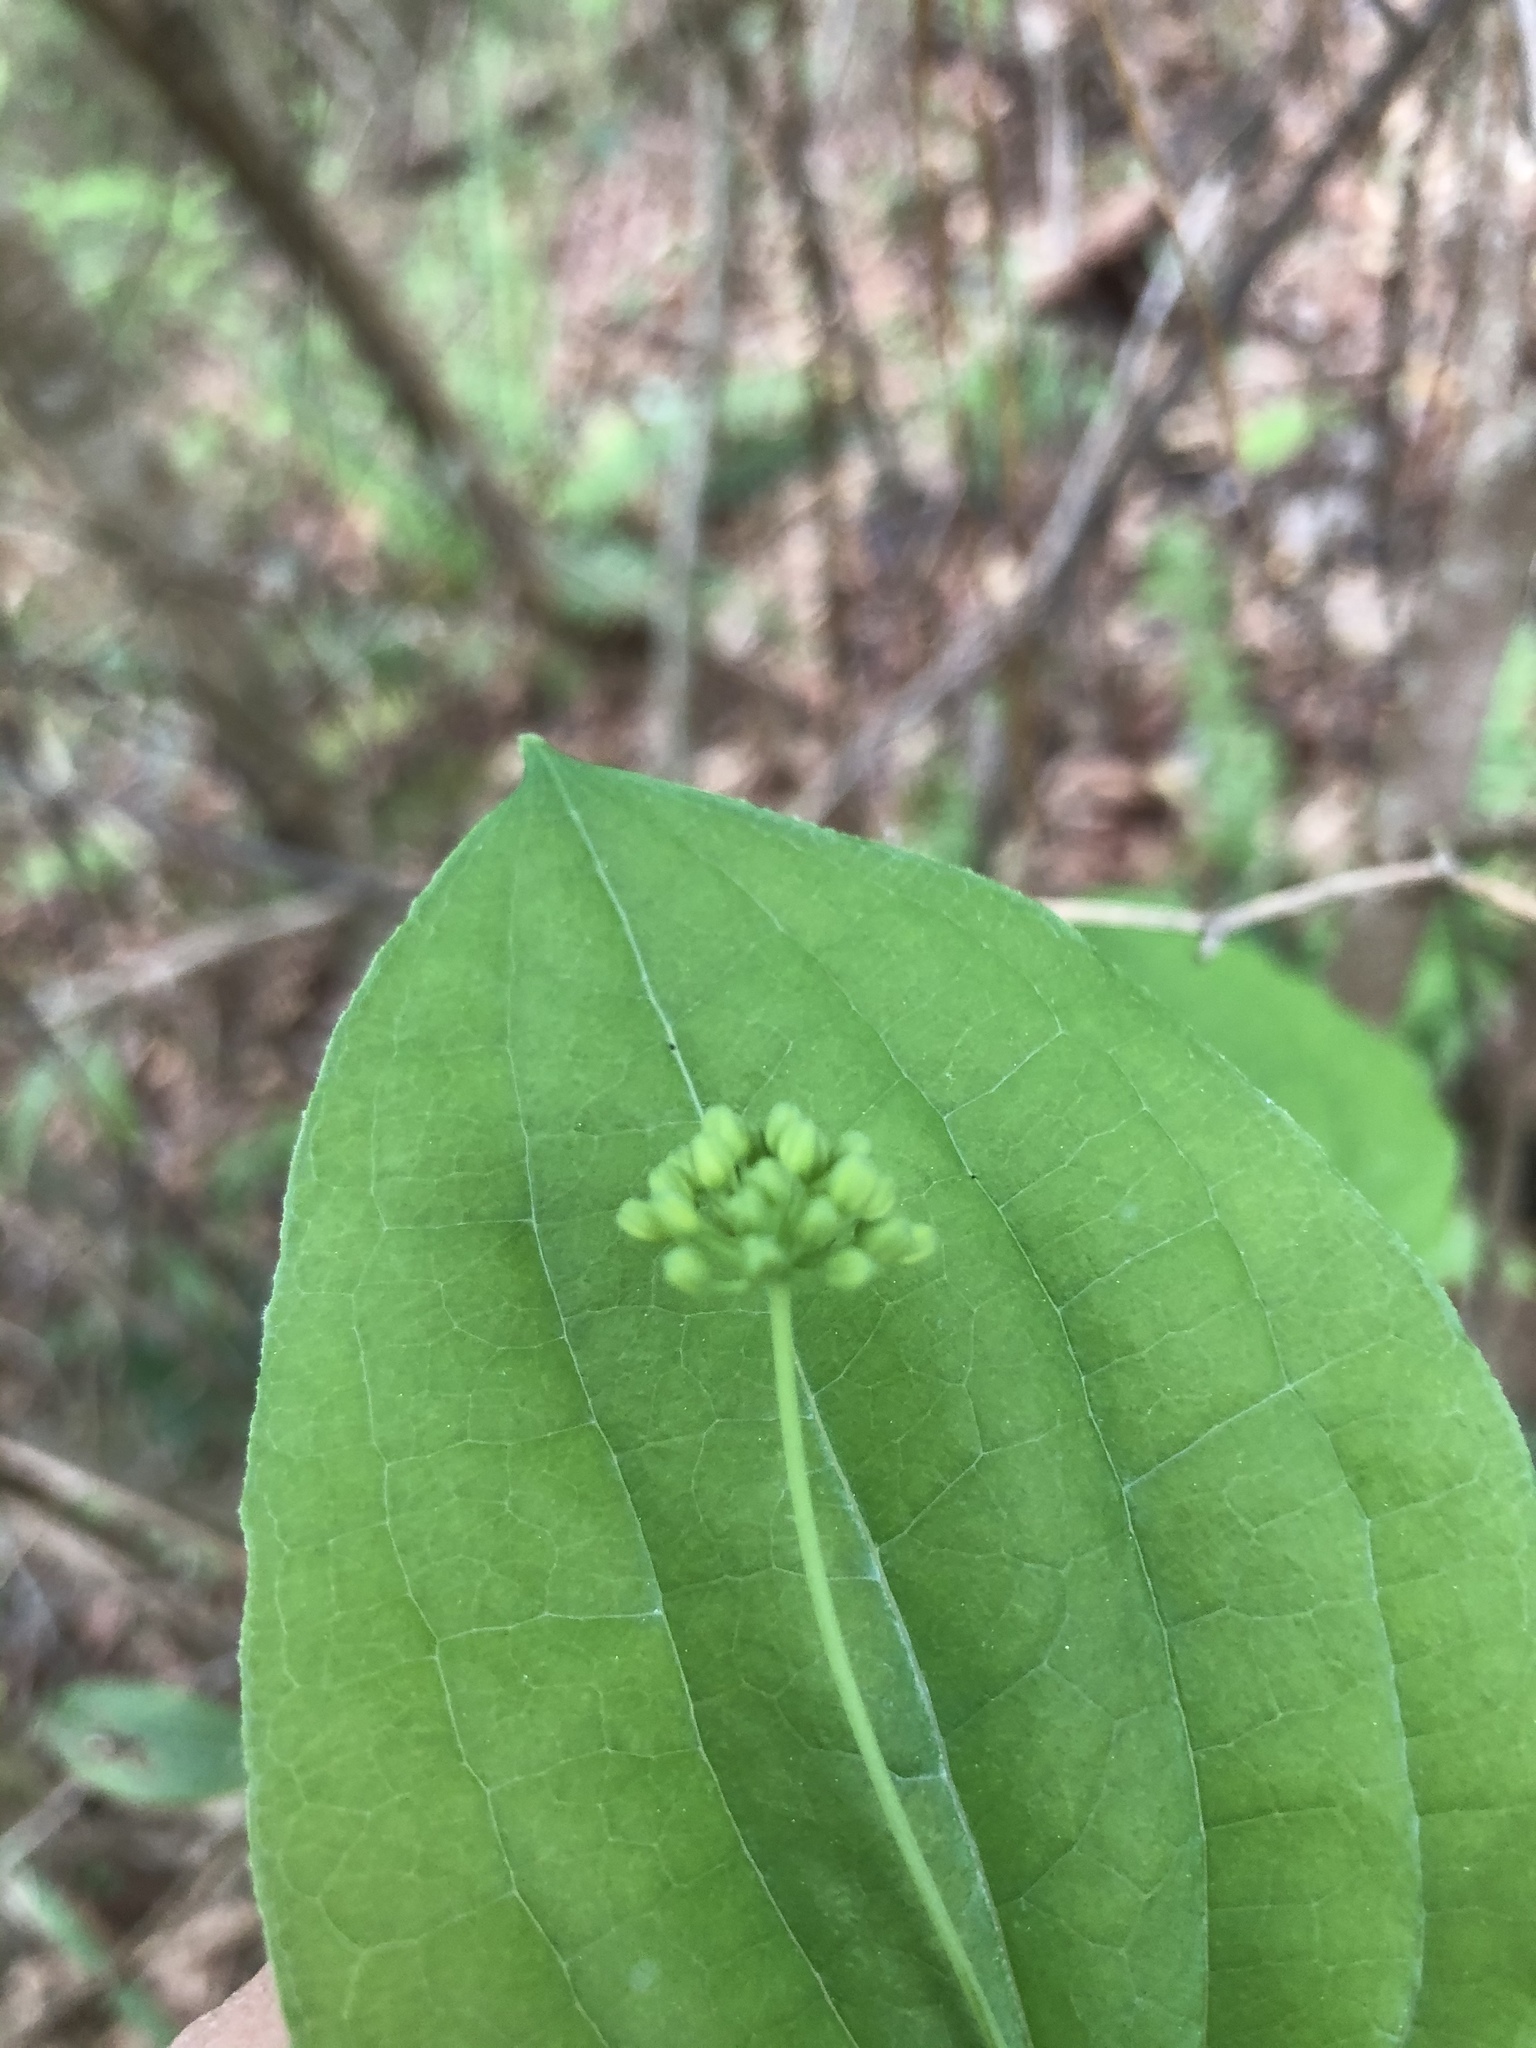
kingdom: Plantae
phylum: Tracheophyta
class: Liliopsida
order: Liliales
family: Smilacaceae
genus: Smilax
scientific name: Smilax lasioneura
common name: Blue ridge carrionflower
